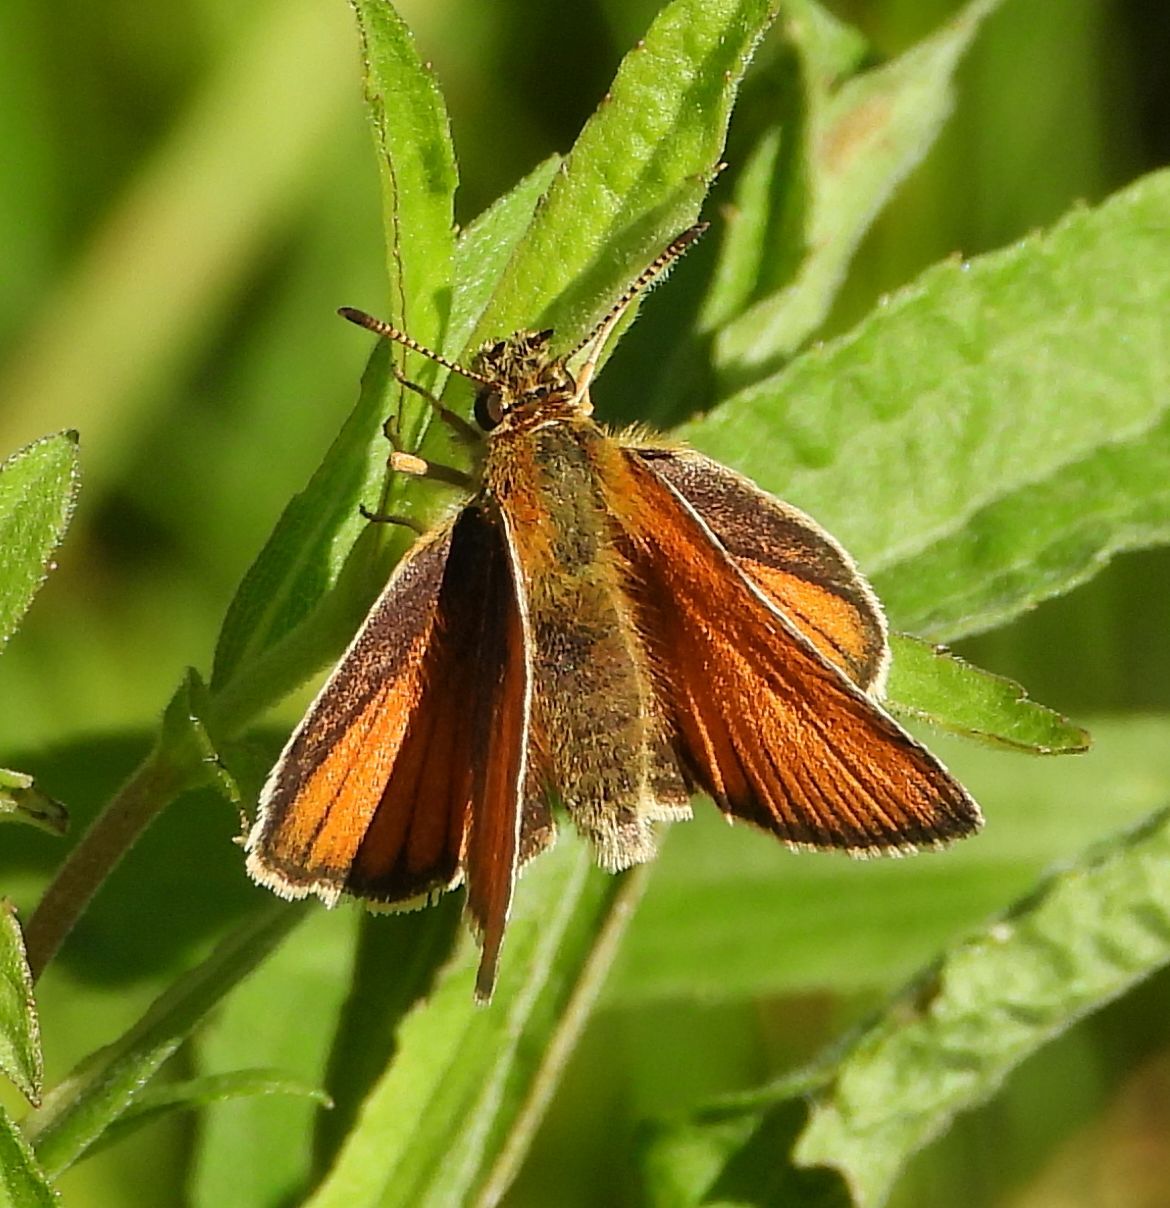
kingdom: Animalia
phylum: Arthropoda
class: Insecta
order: Lepidoptera
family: Hesperiidae
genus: Thymelicus
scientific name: Thymelicus lineola
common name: Essex skipper
